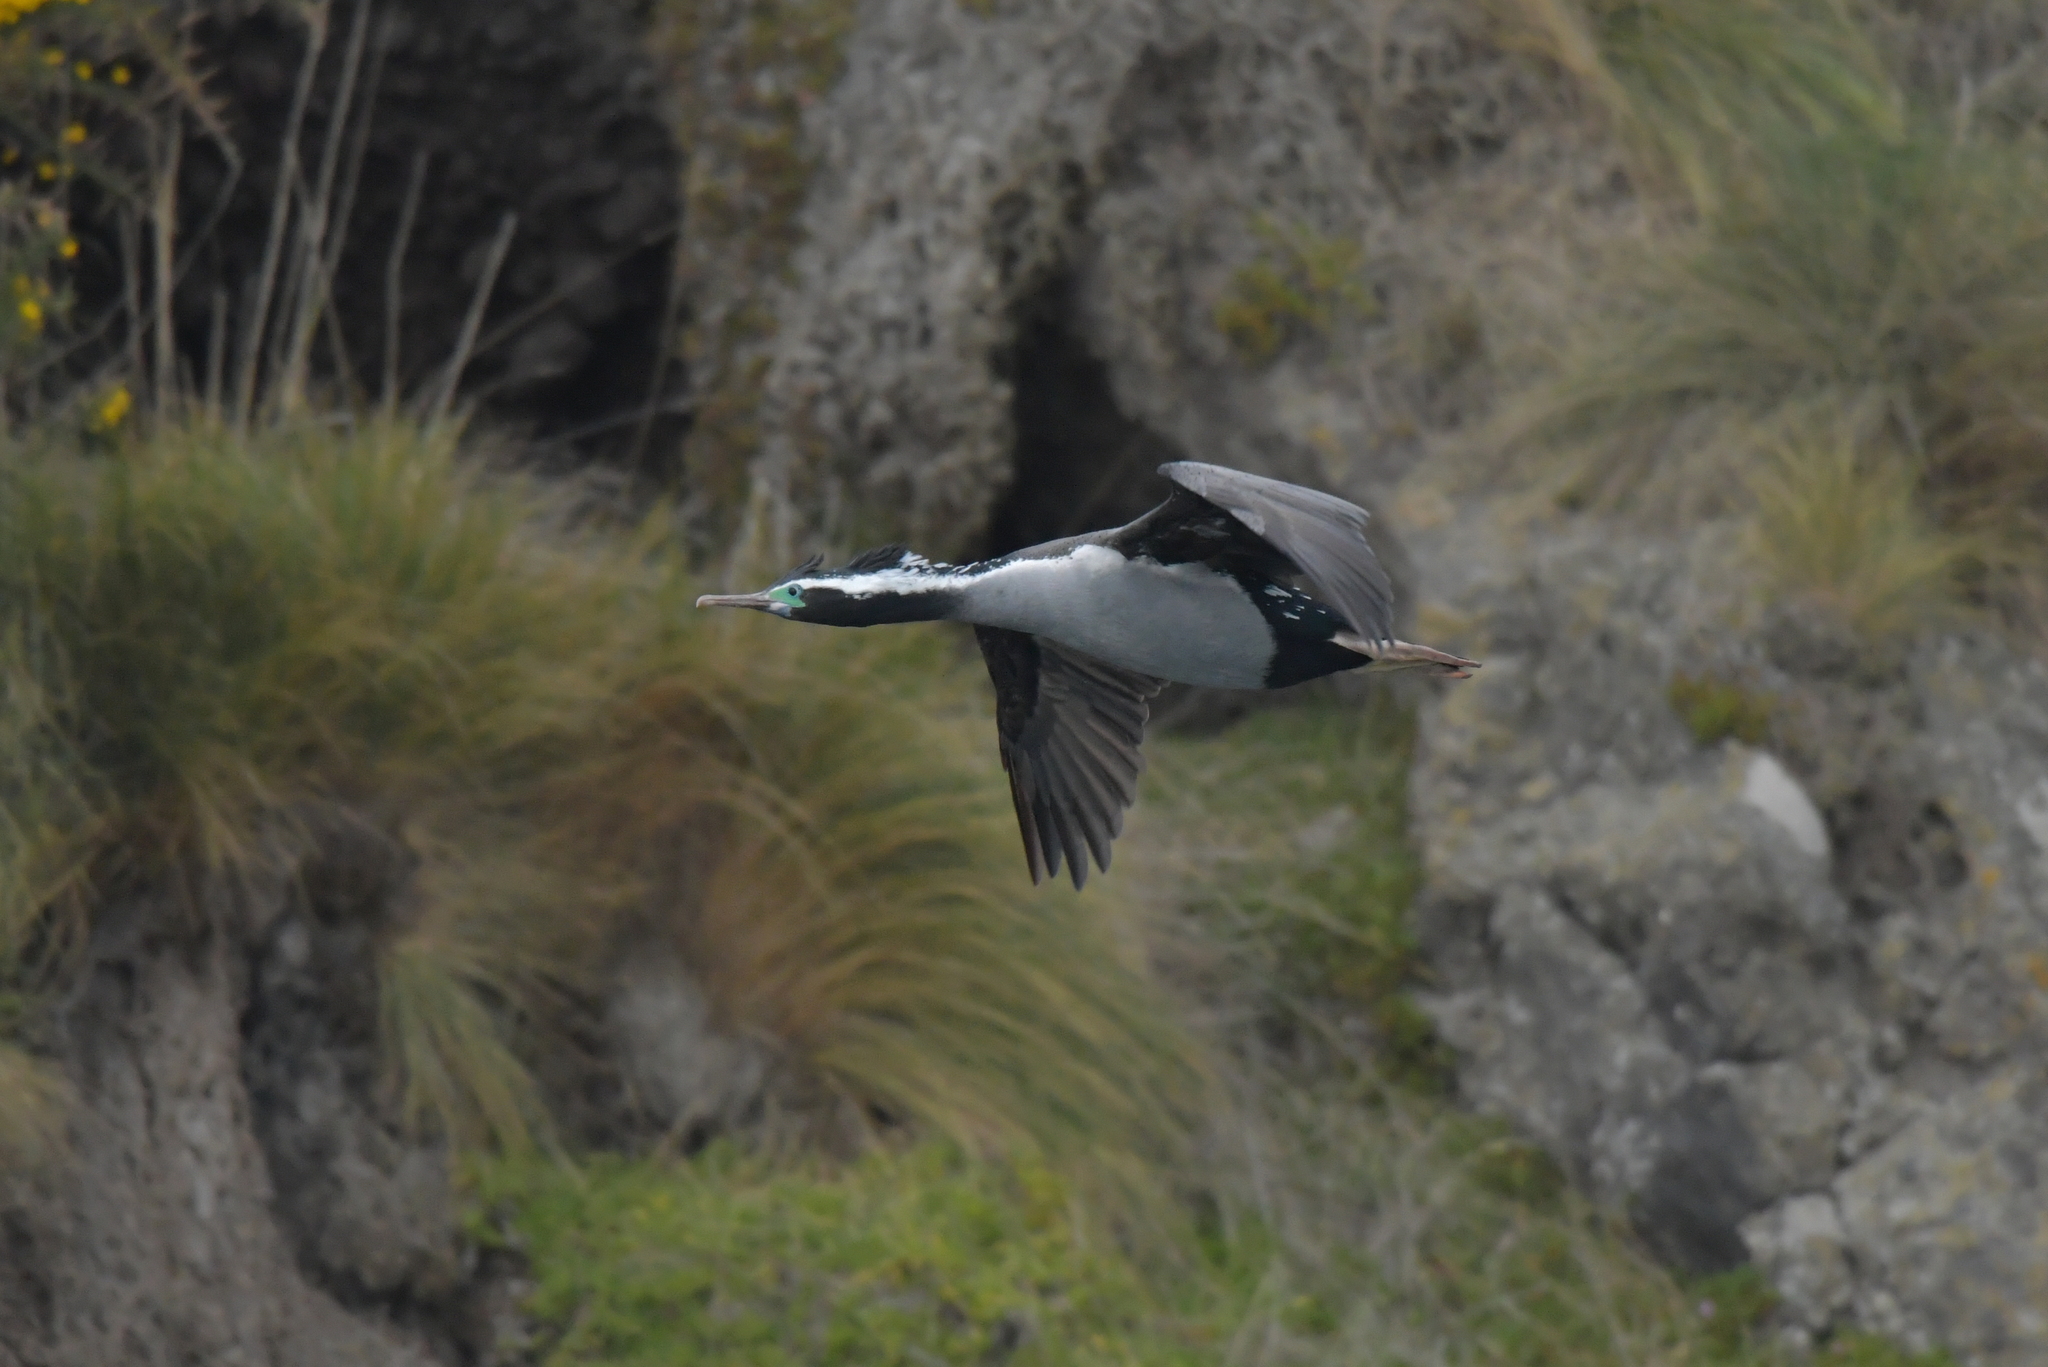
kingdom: Animalia
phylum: Chordata
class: Aves
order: Suliformes
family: Phalacrocoracidae
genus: Phalacrocorax
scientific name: Phalacrocorax punctatus
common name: Spotted shag
